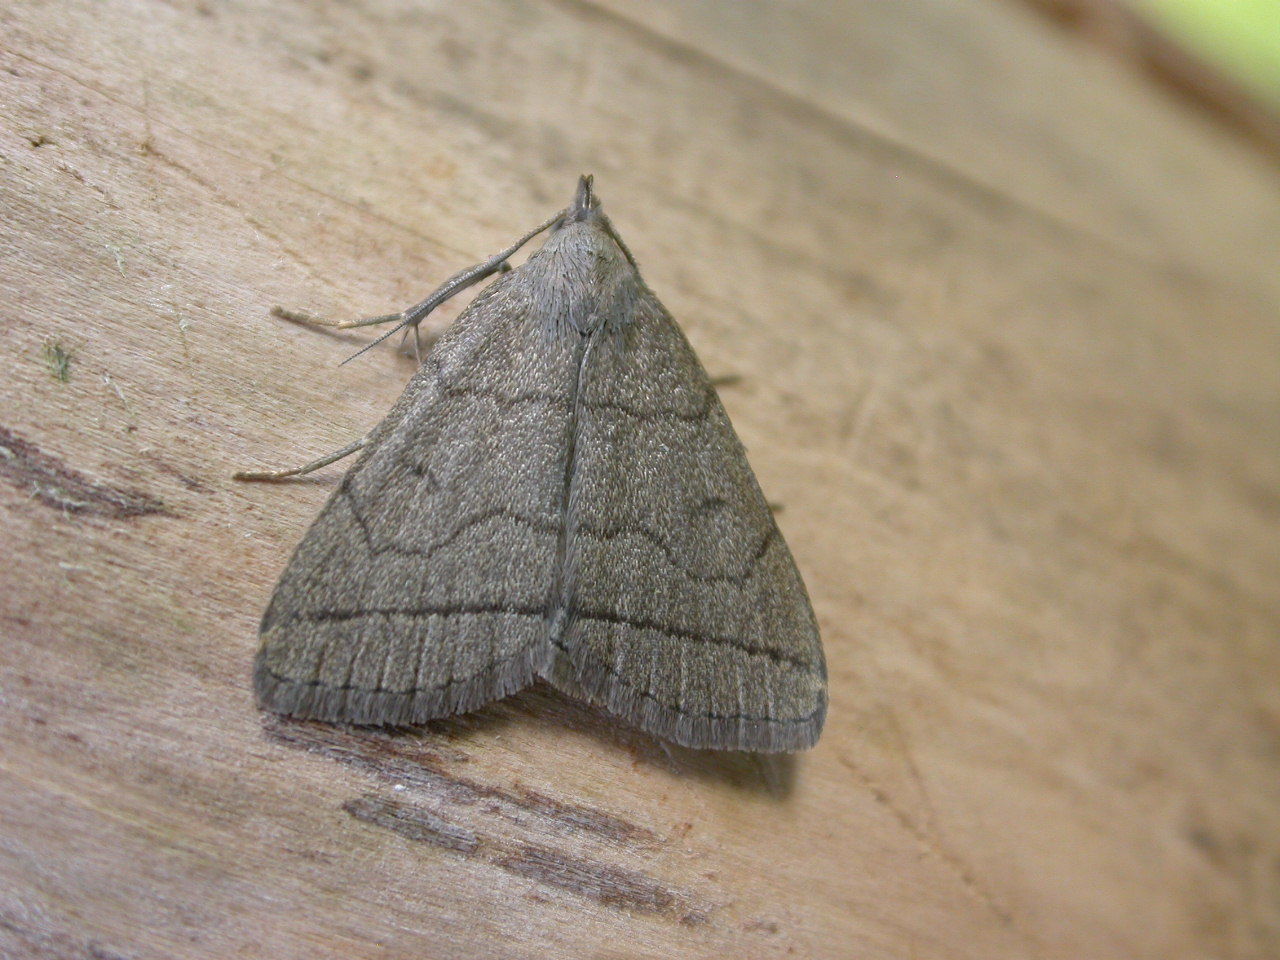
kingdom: Animalia
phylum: Arthropoda
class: Insecta
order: Lepidoptera
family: Erebidae
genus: Herminia
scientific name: Herminia tarsipennalis
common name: Fan-foot
